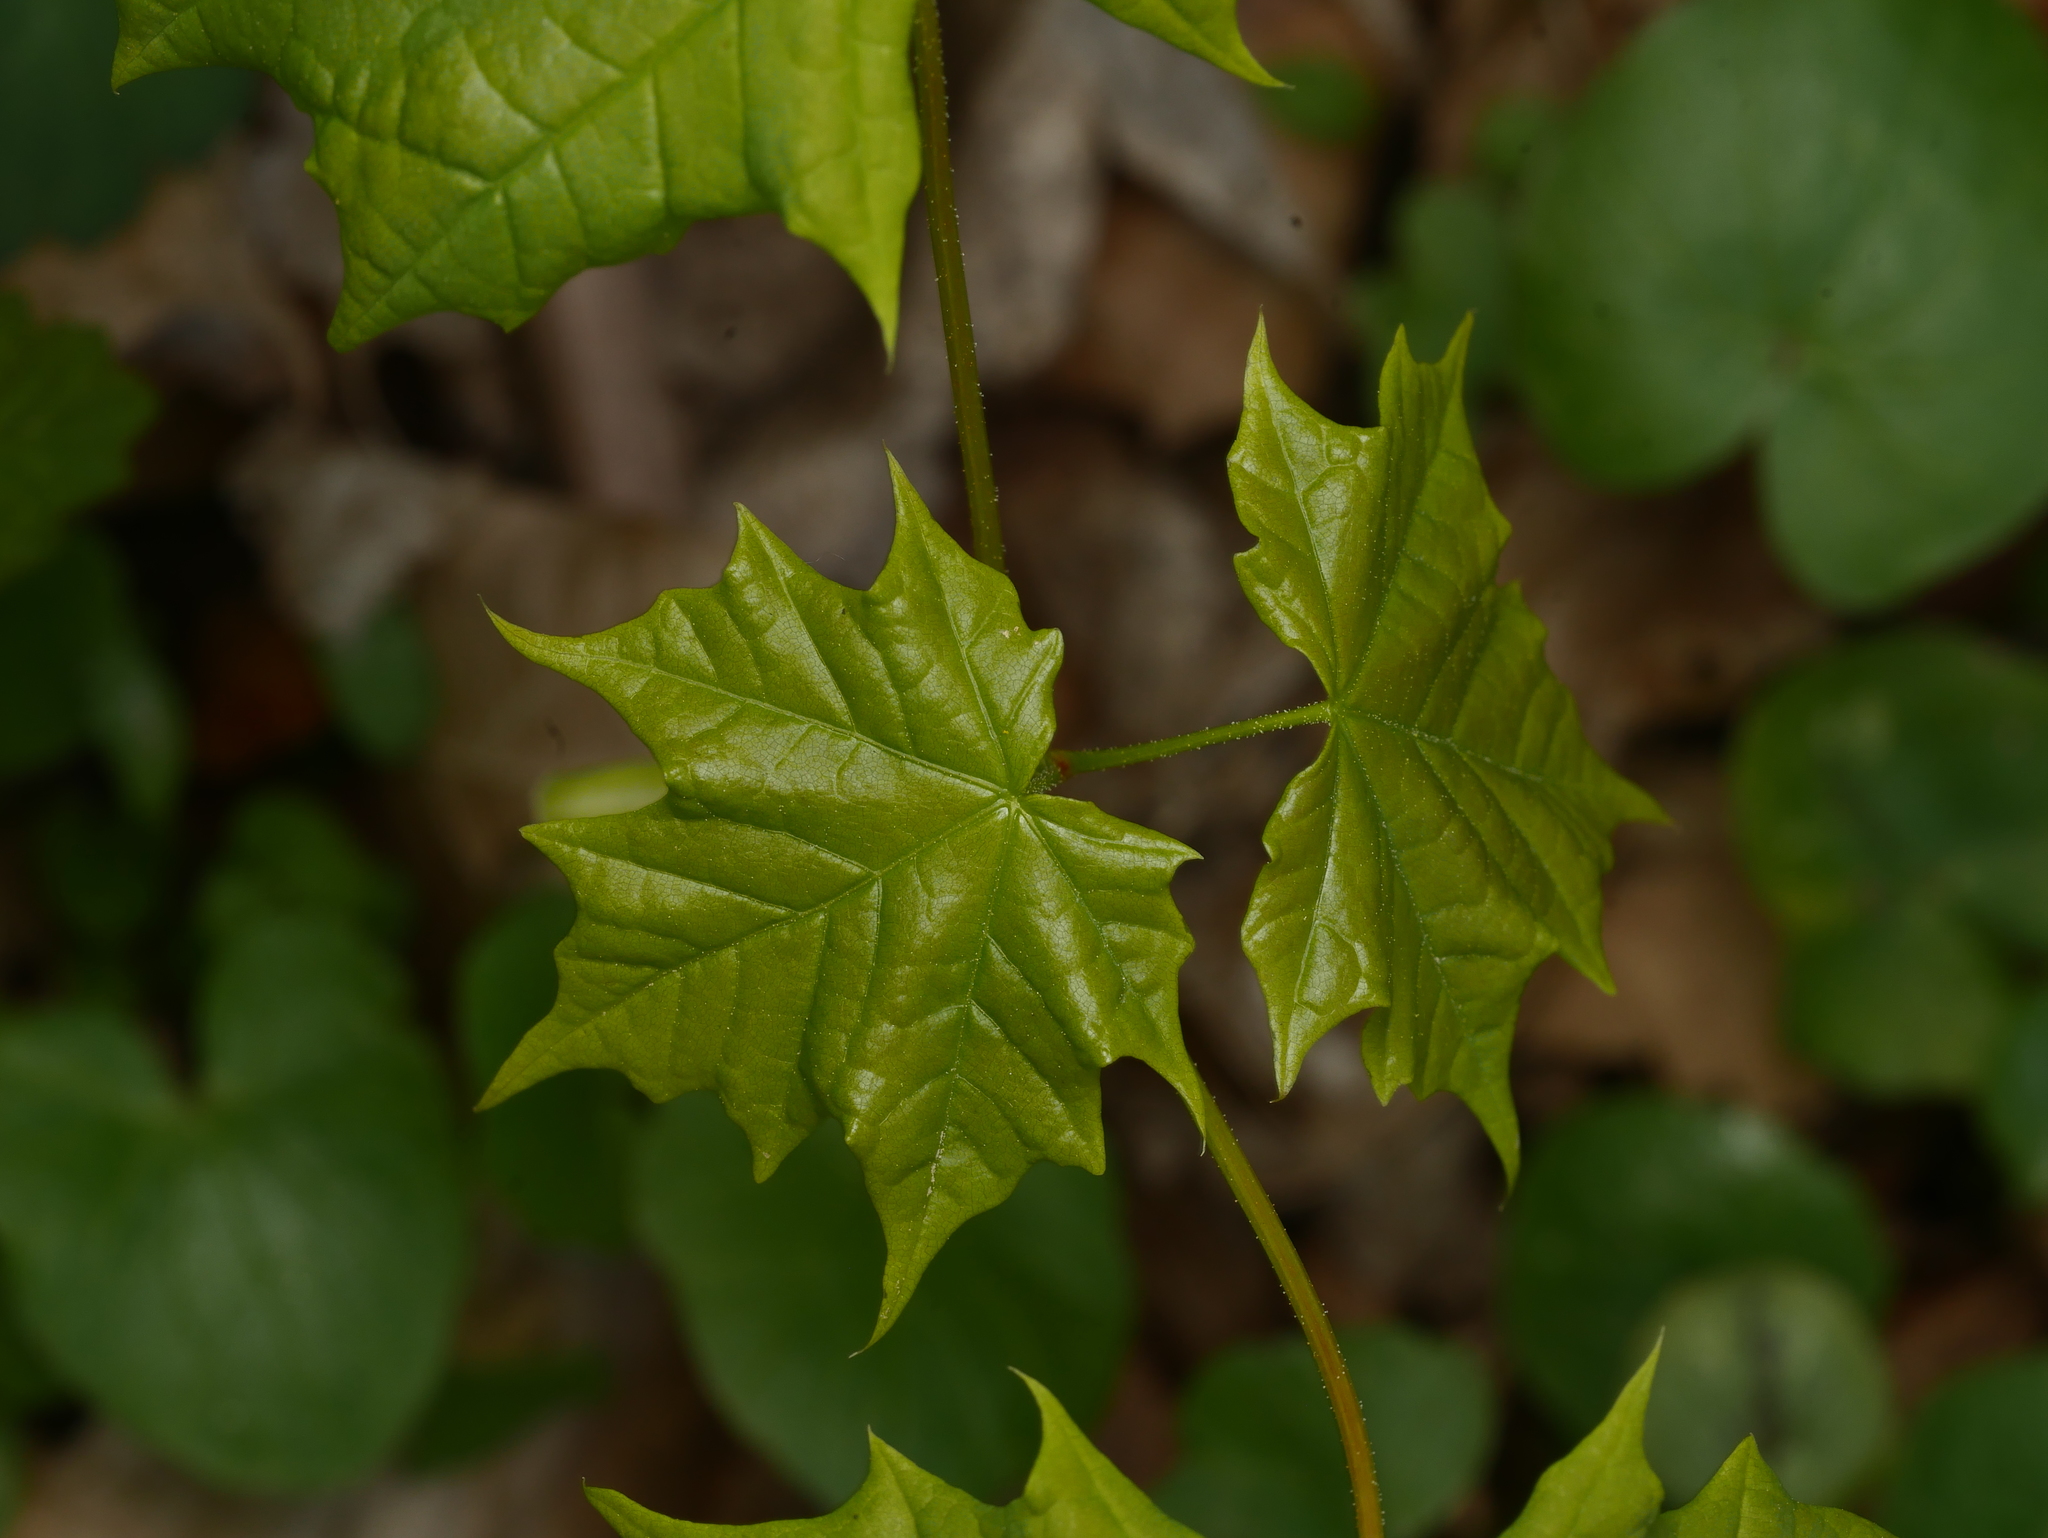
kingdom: Plantae
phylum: Tracheophyta
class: Magnoliopsida
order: Sapindales
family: Sapindaceae
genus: Acer
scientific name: Acer platanoides
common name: Norway maple
